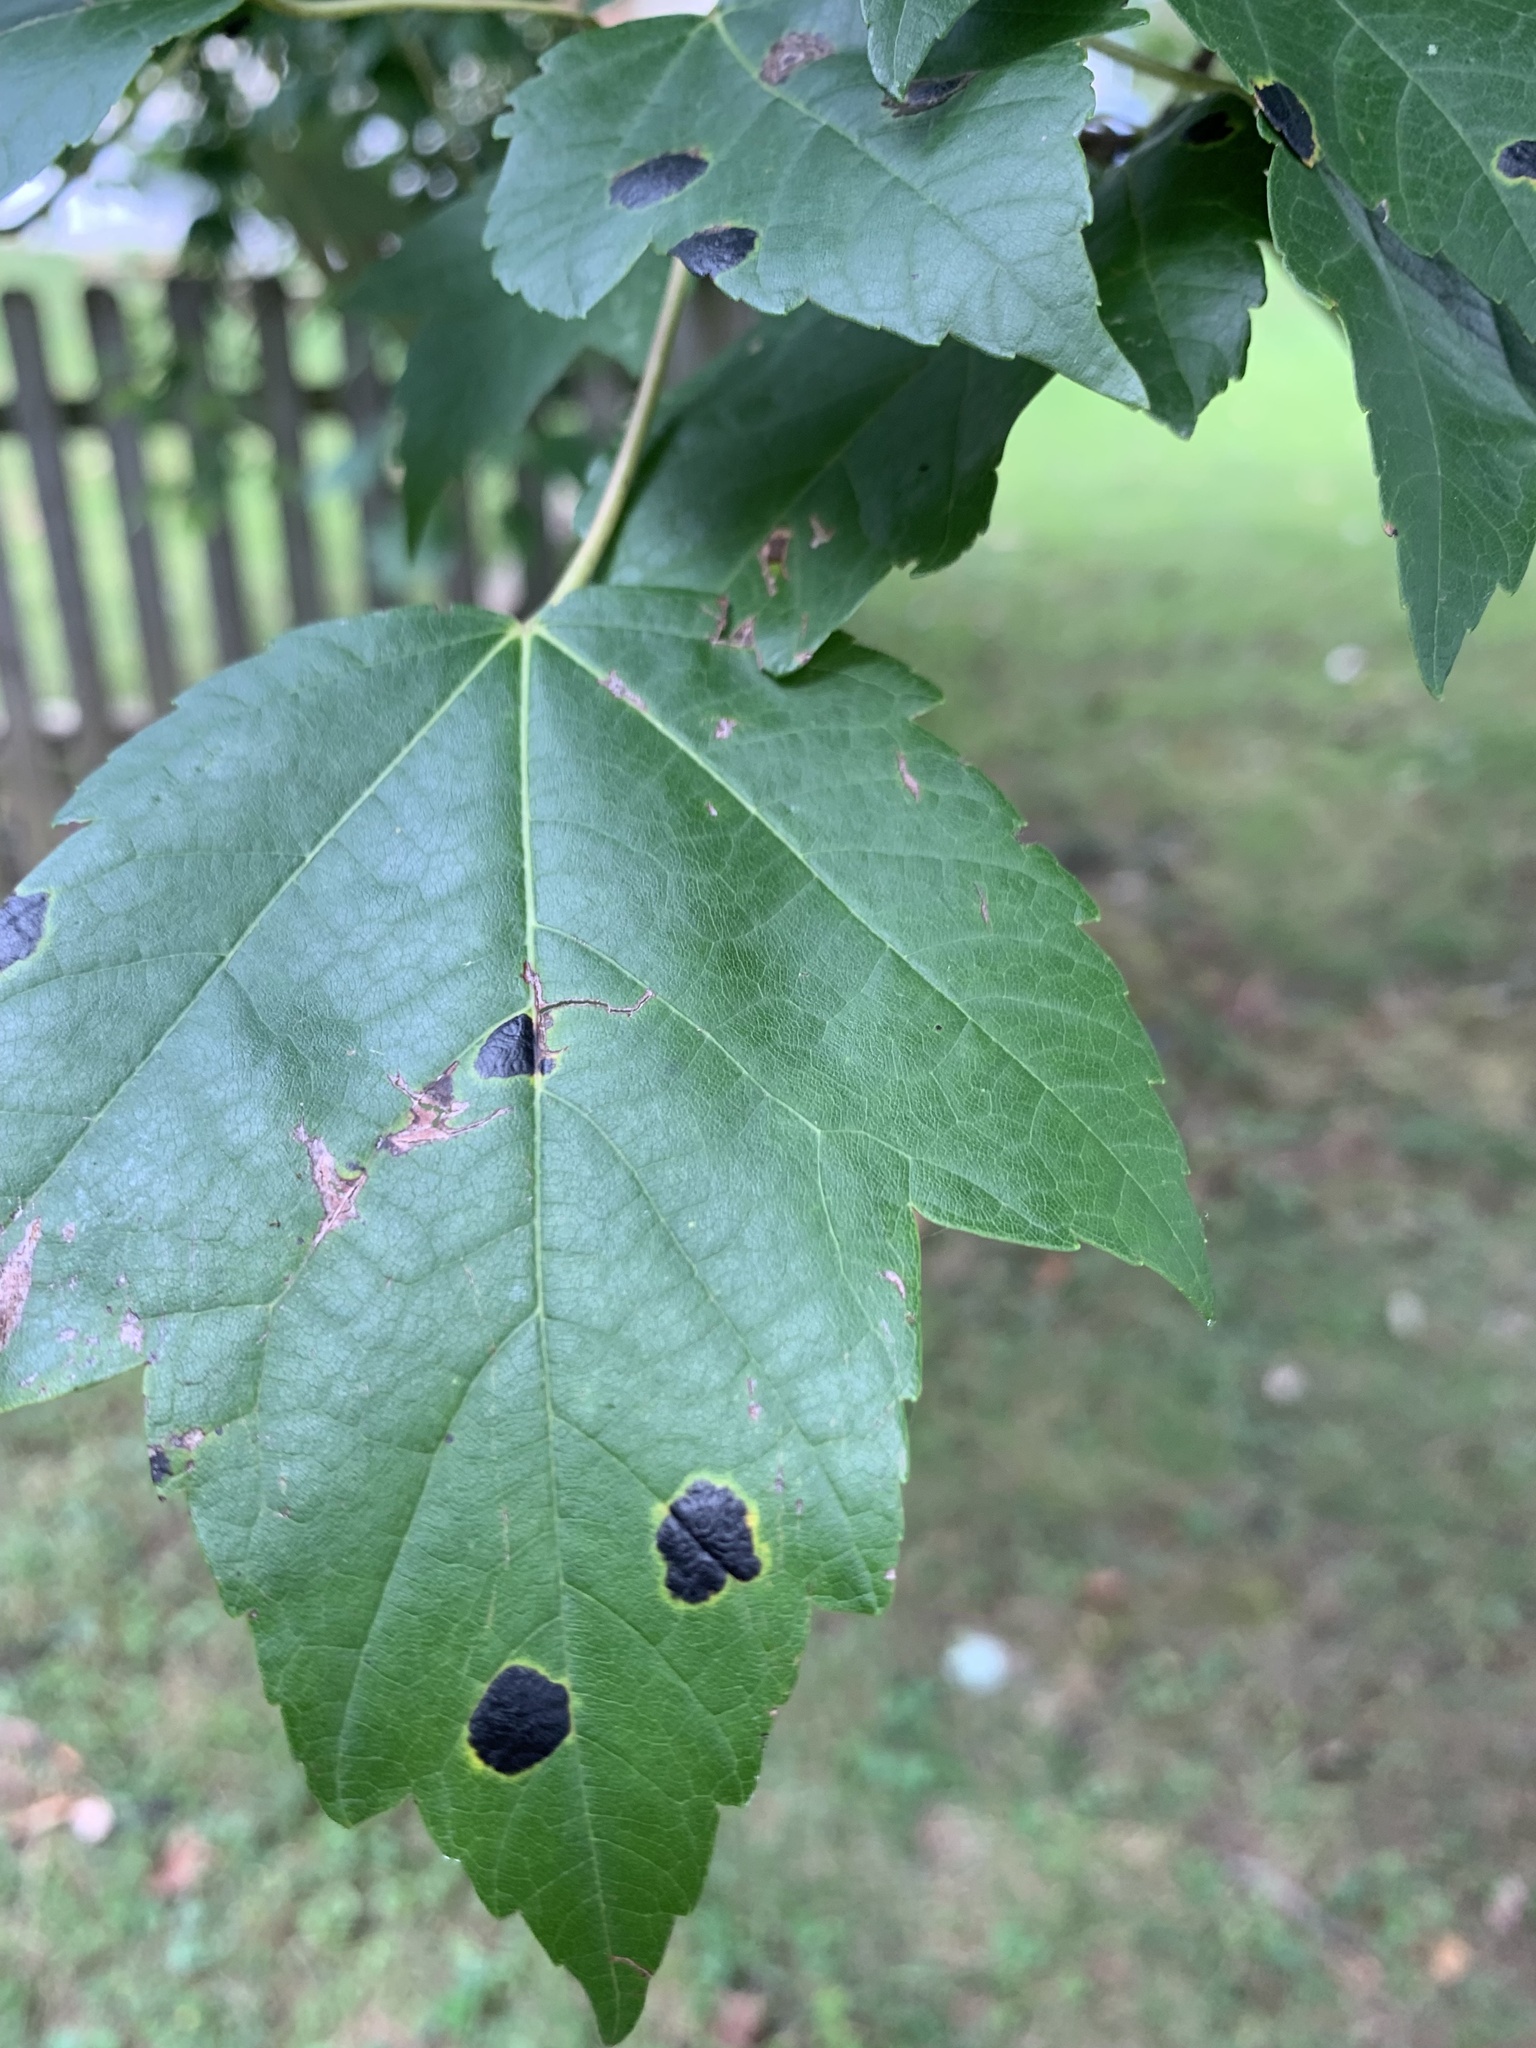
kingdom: Fungi
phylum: Ascomycota
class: Leotiomycetes
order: Rhytismatales
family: Rhytismataceae
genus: Rhytisma
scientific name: Rhytisma americanum
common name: American tar spot
